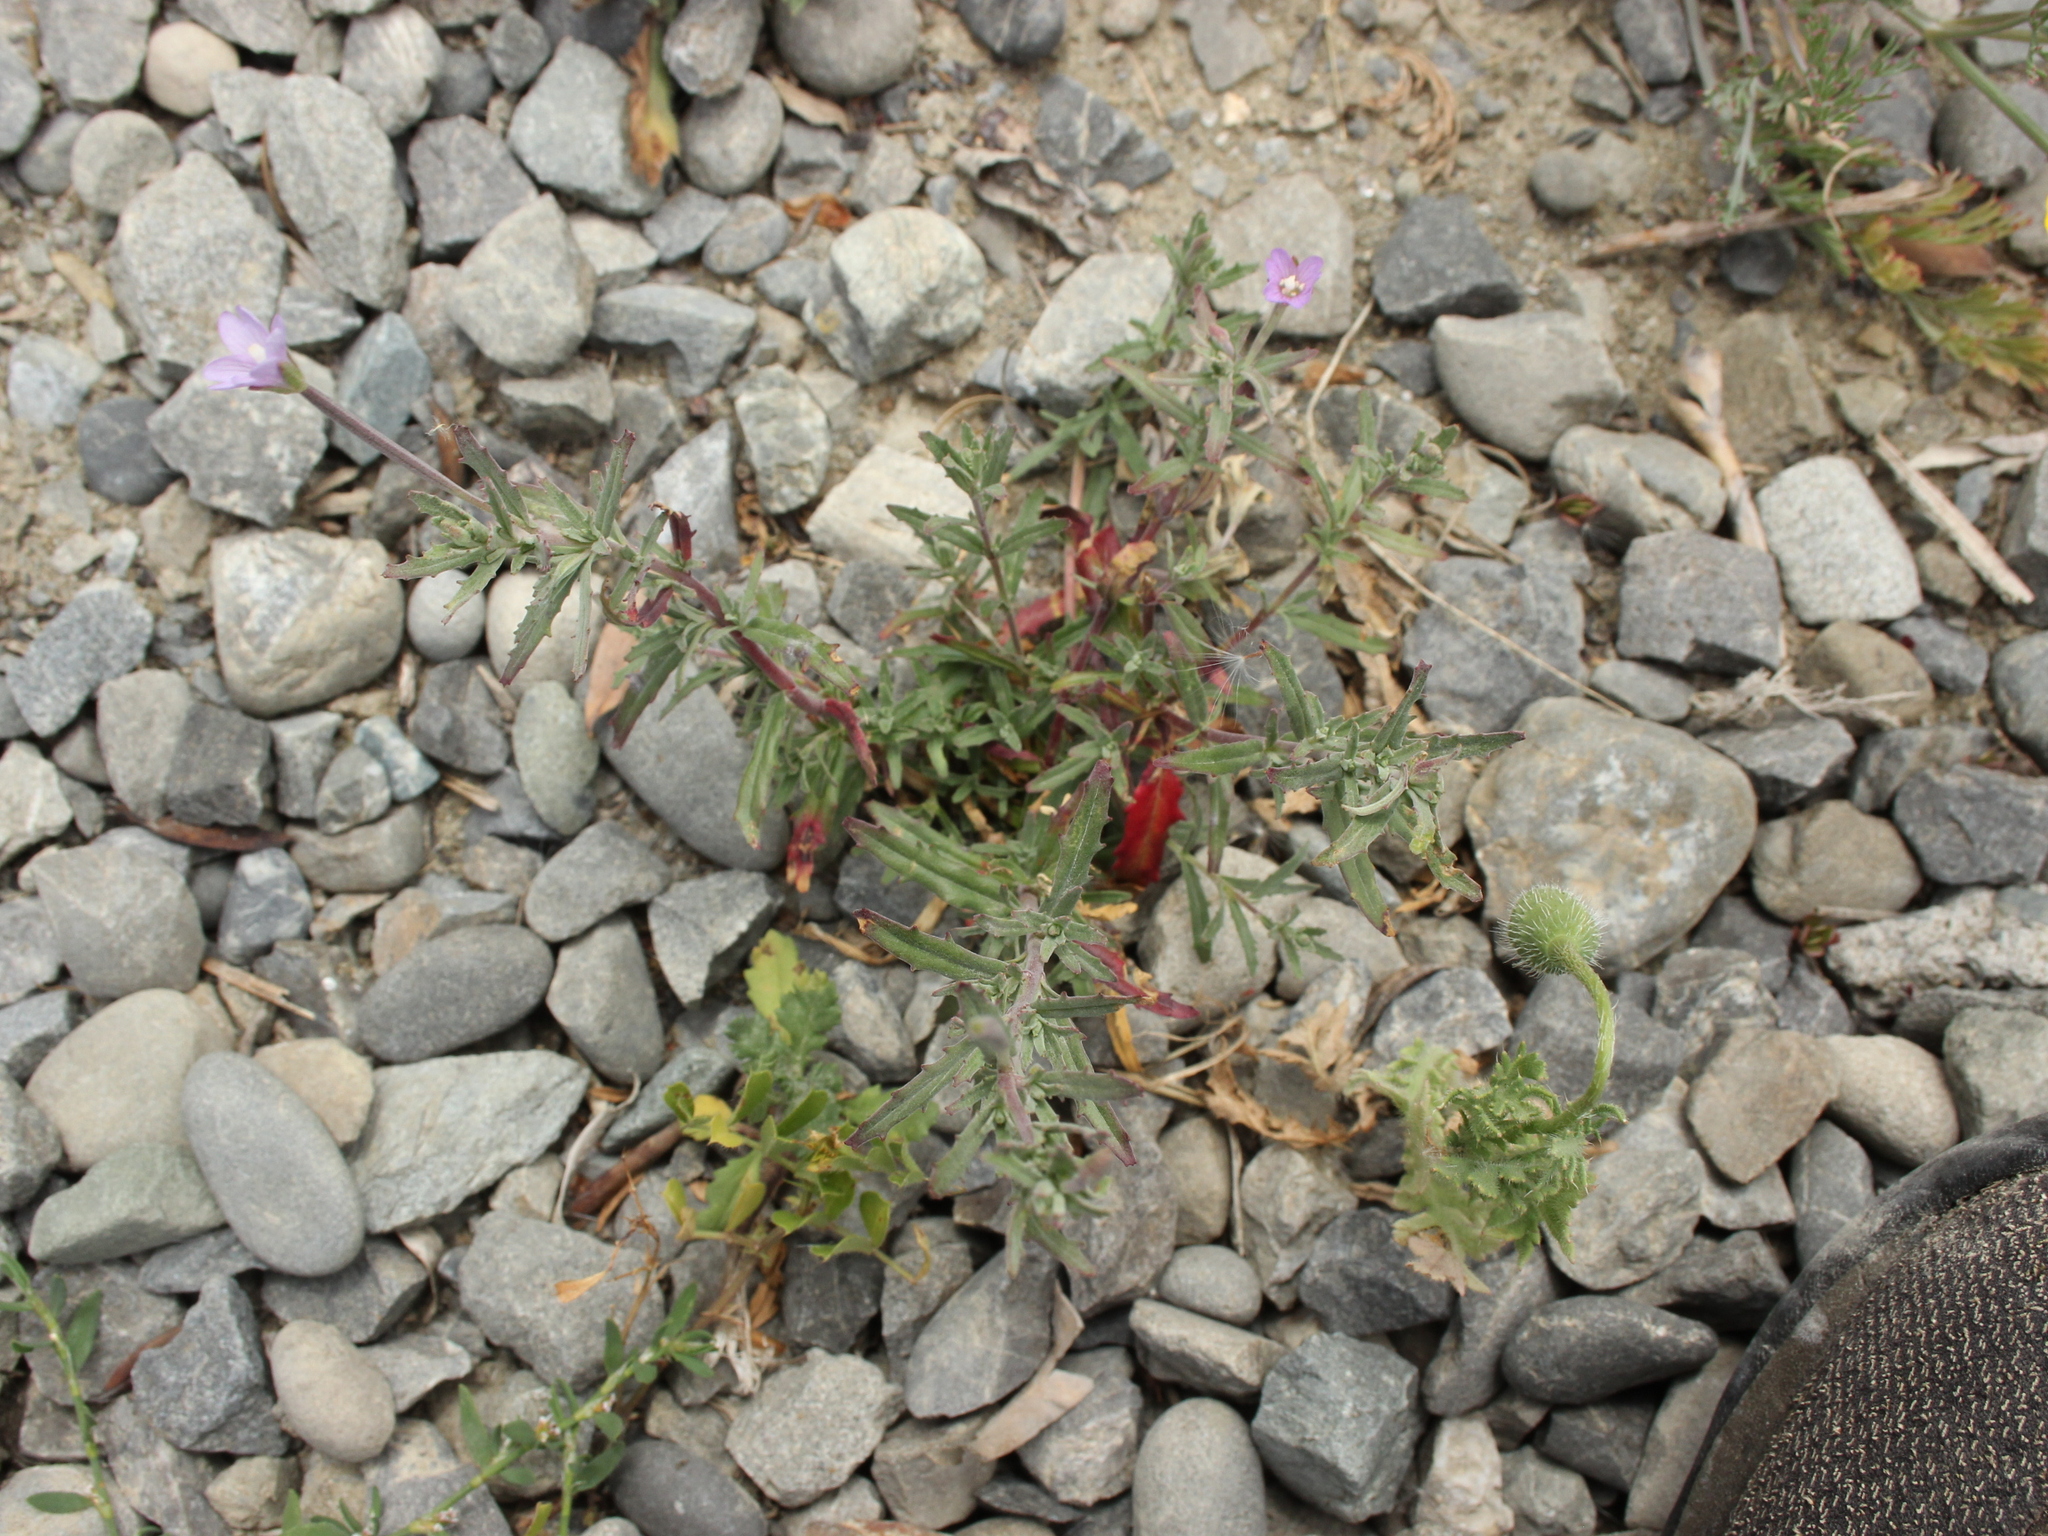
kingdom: Plantae
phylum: Tracheophyta
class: Magnoliopsida
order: Myrtales
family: Onagraceae
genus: Epilobium
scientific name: Epilobium billardierianum
